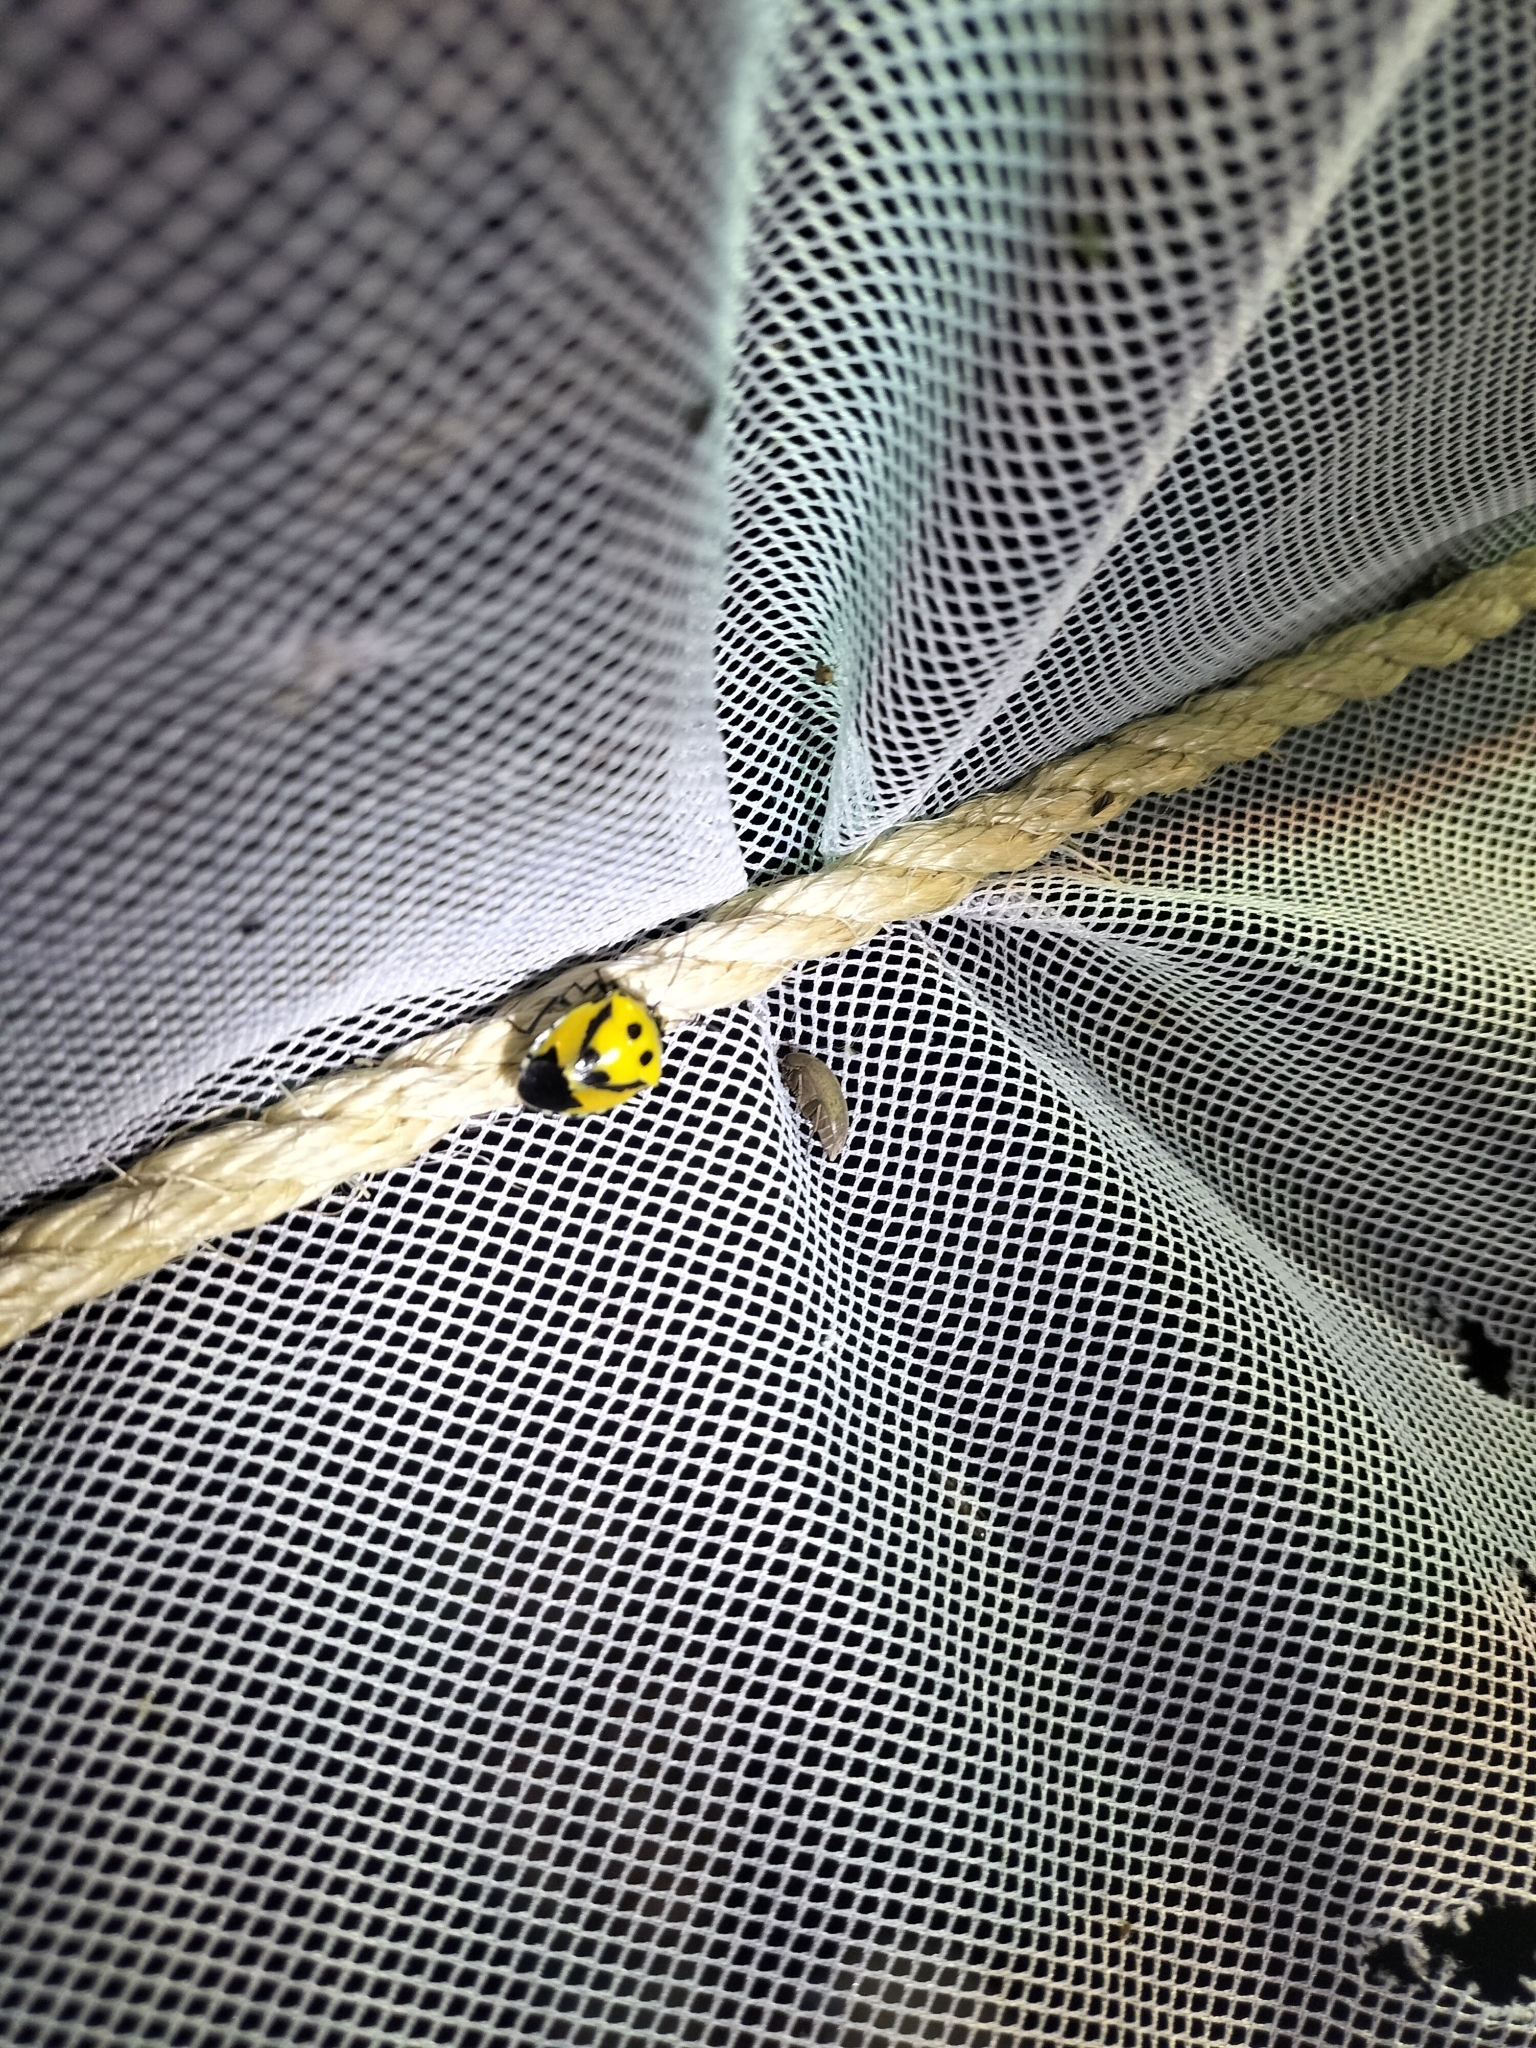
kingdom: Animalia
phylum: Arthropoda
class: Insecta
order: Hemiptera
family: Pentatomidae
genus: Hyrmine
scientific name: Hyrmine
